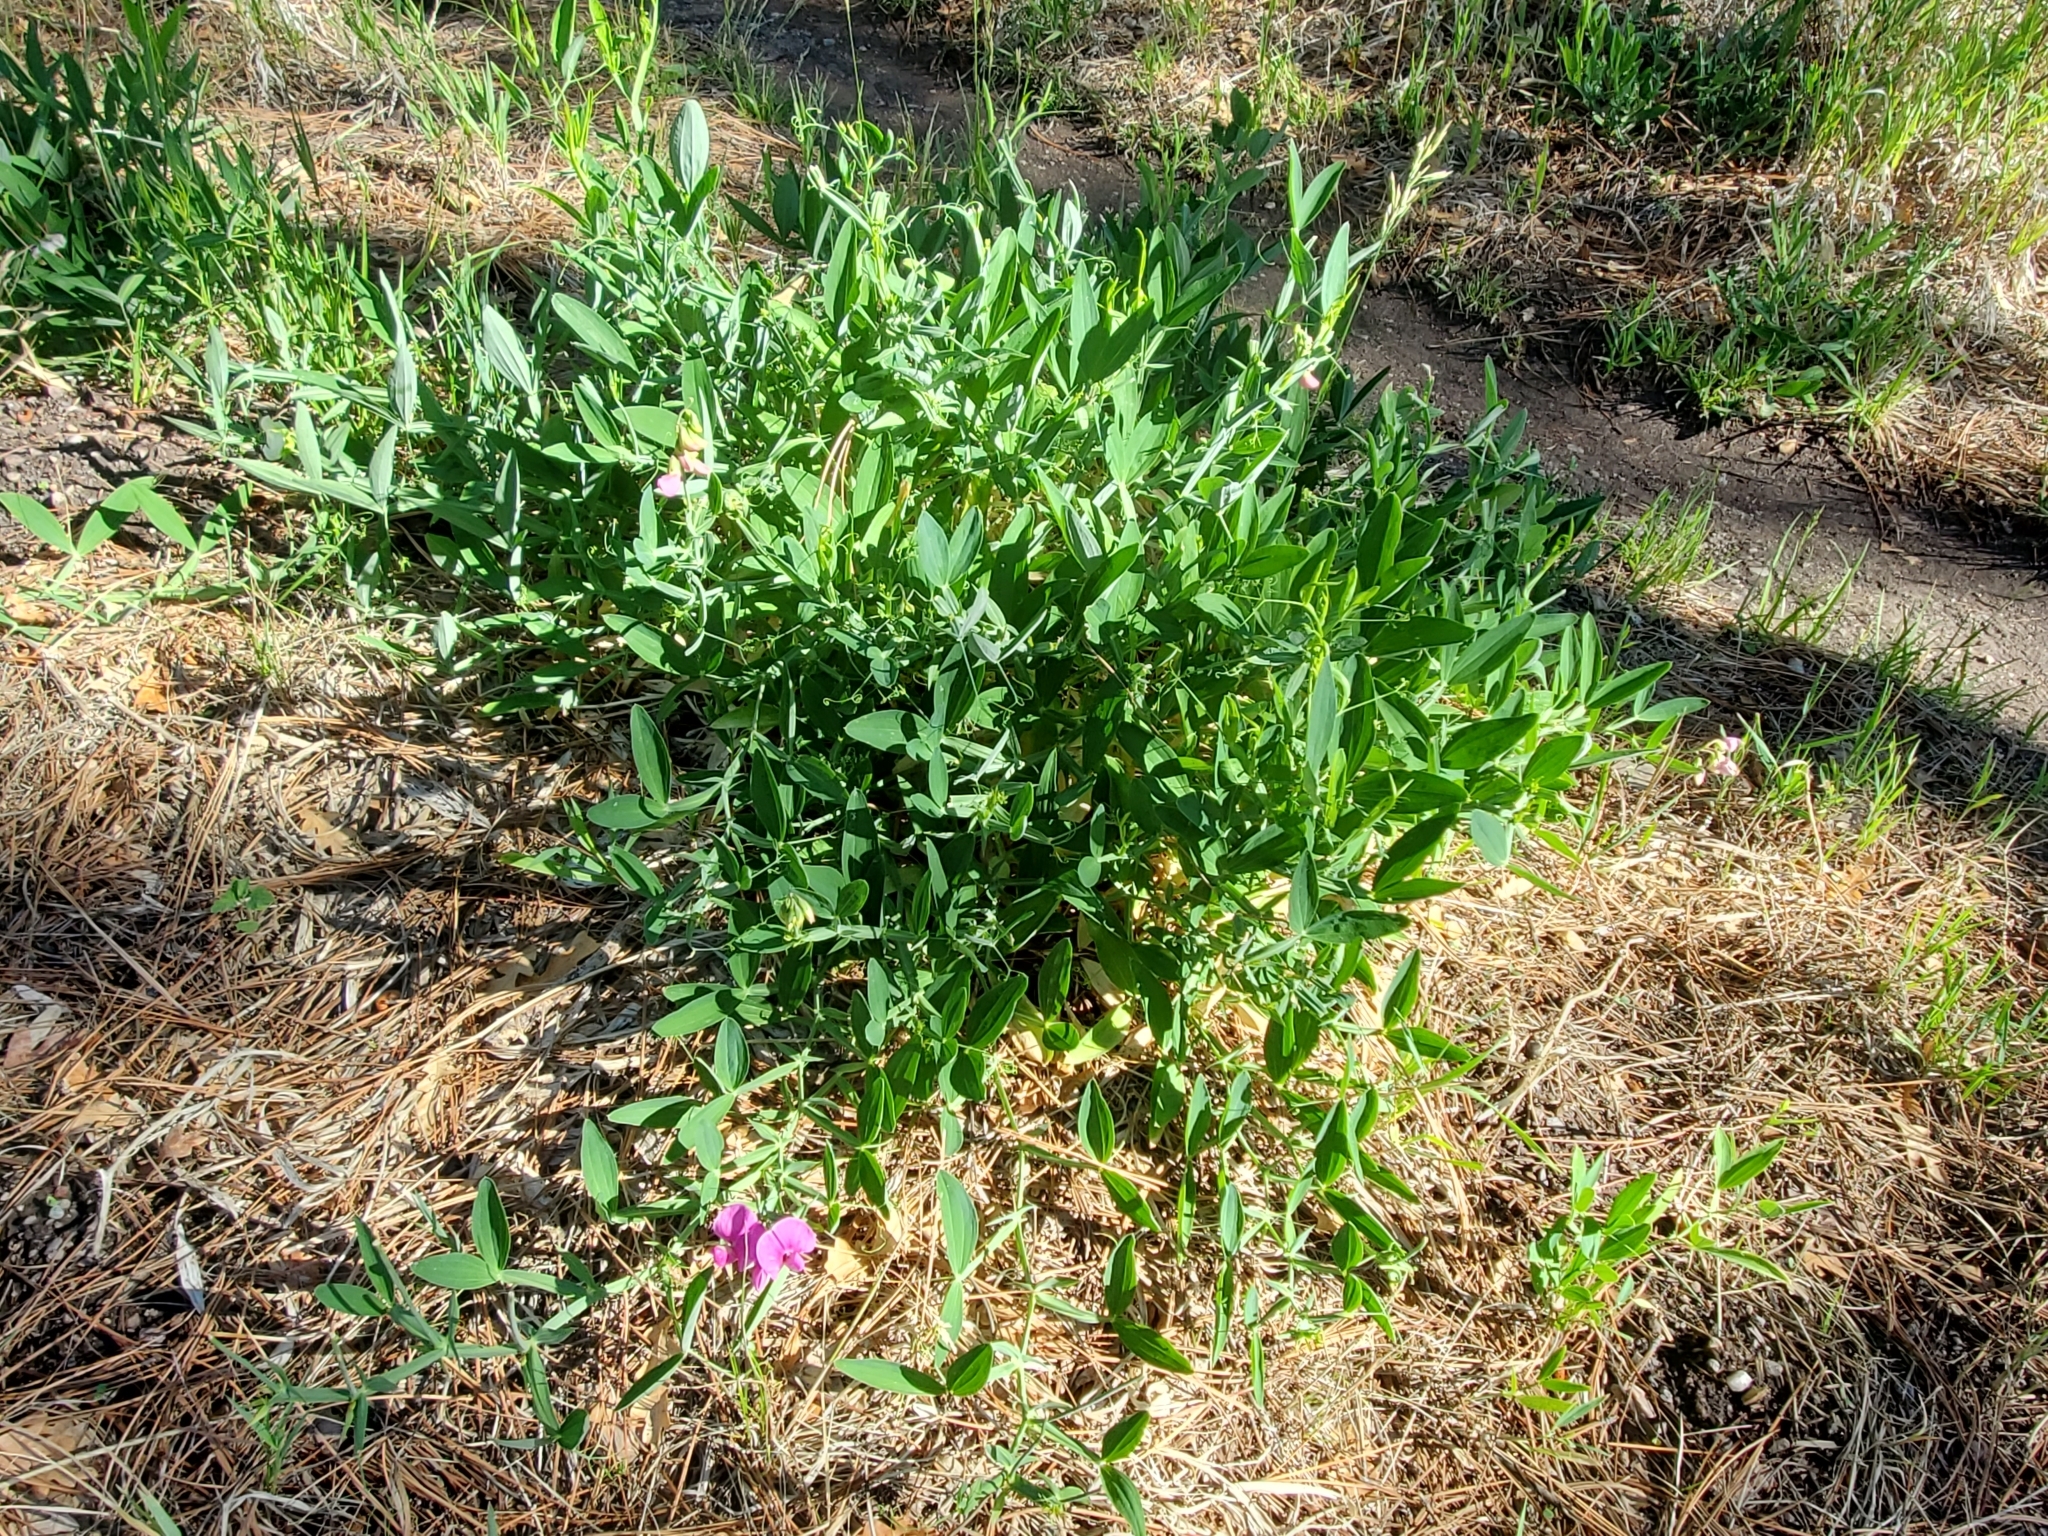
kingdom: Plantae
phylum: Tracheophyta
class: Magnoliopsida
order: Fabales
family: Fabaceae
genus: Lathyrus
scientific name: Lathyrus latifolius
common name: Perennial pea
